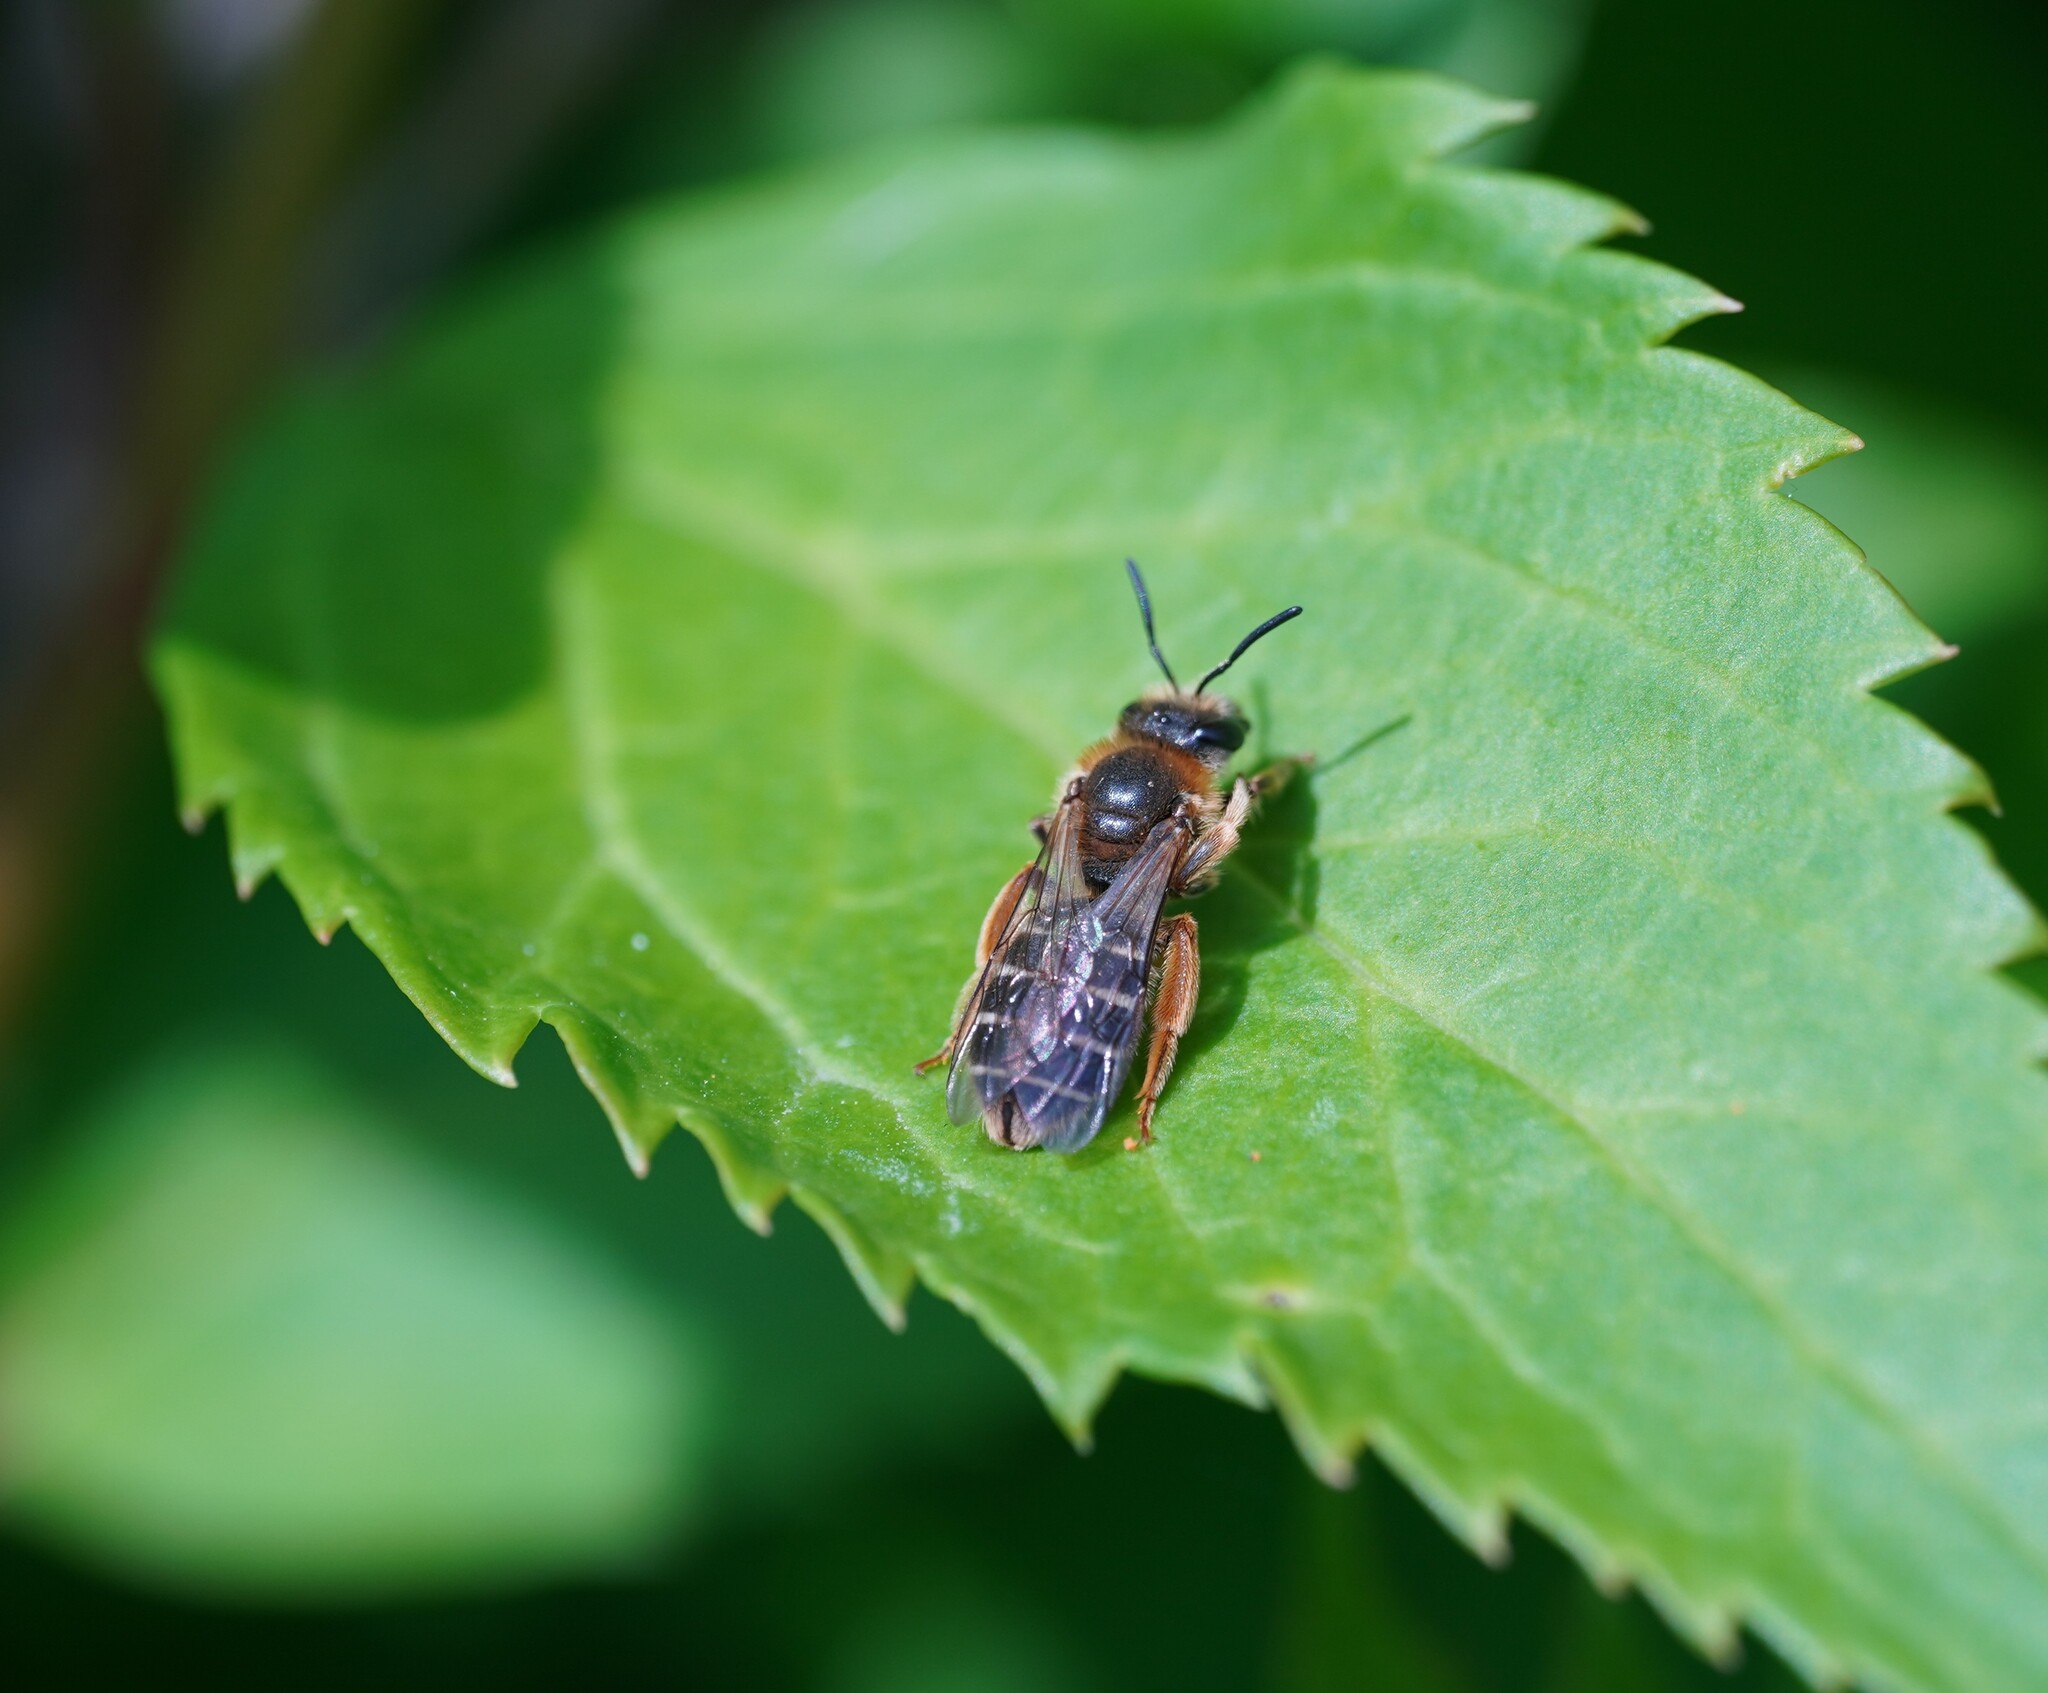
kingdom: Animalia
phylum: Arthropoda
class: Insecta
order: Hymenoptera
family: Halictidae
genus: Halictus
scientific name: Halictus rubicundus
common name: Orange-legged furrow bee
